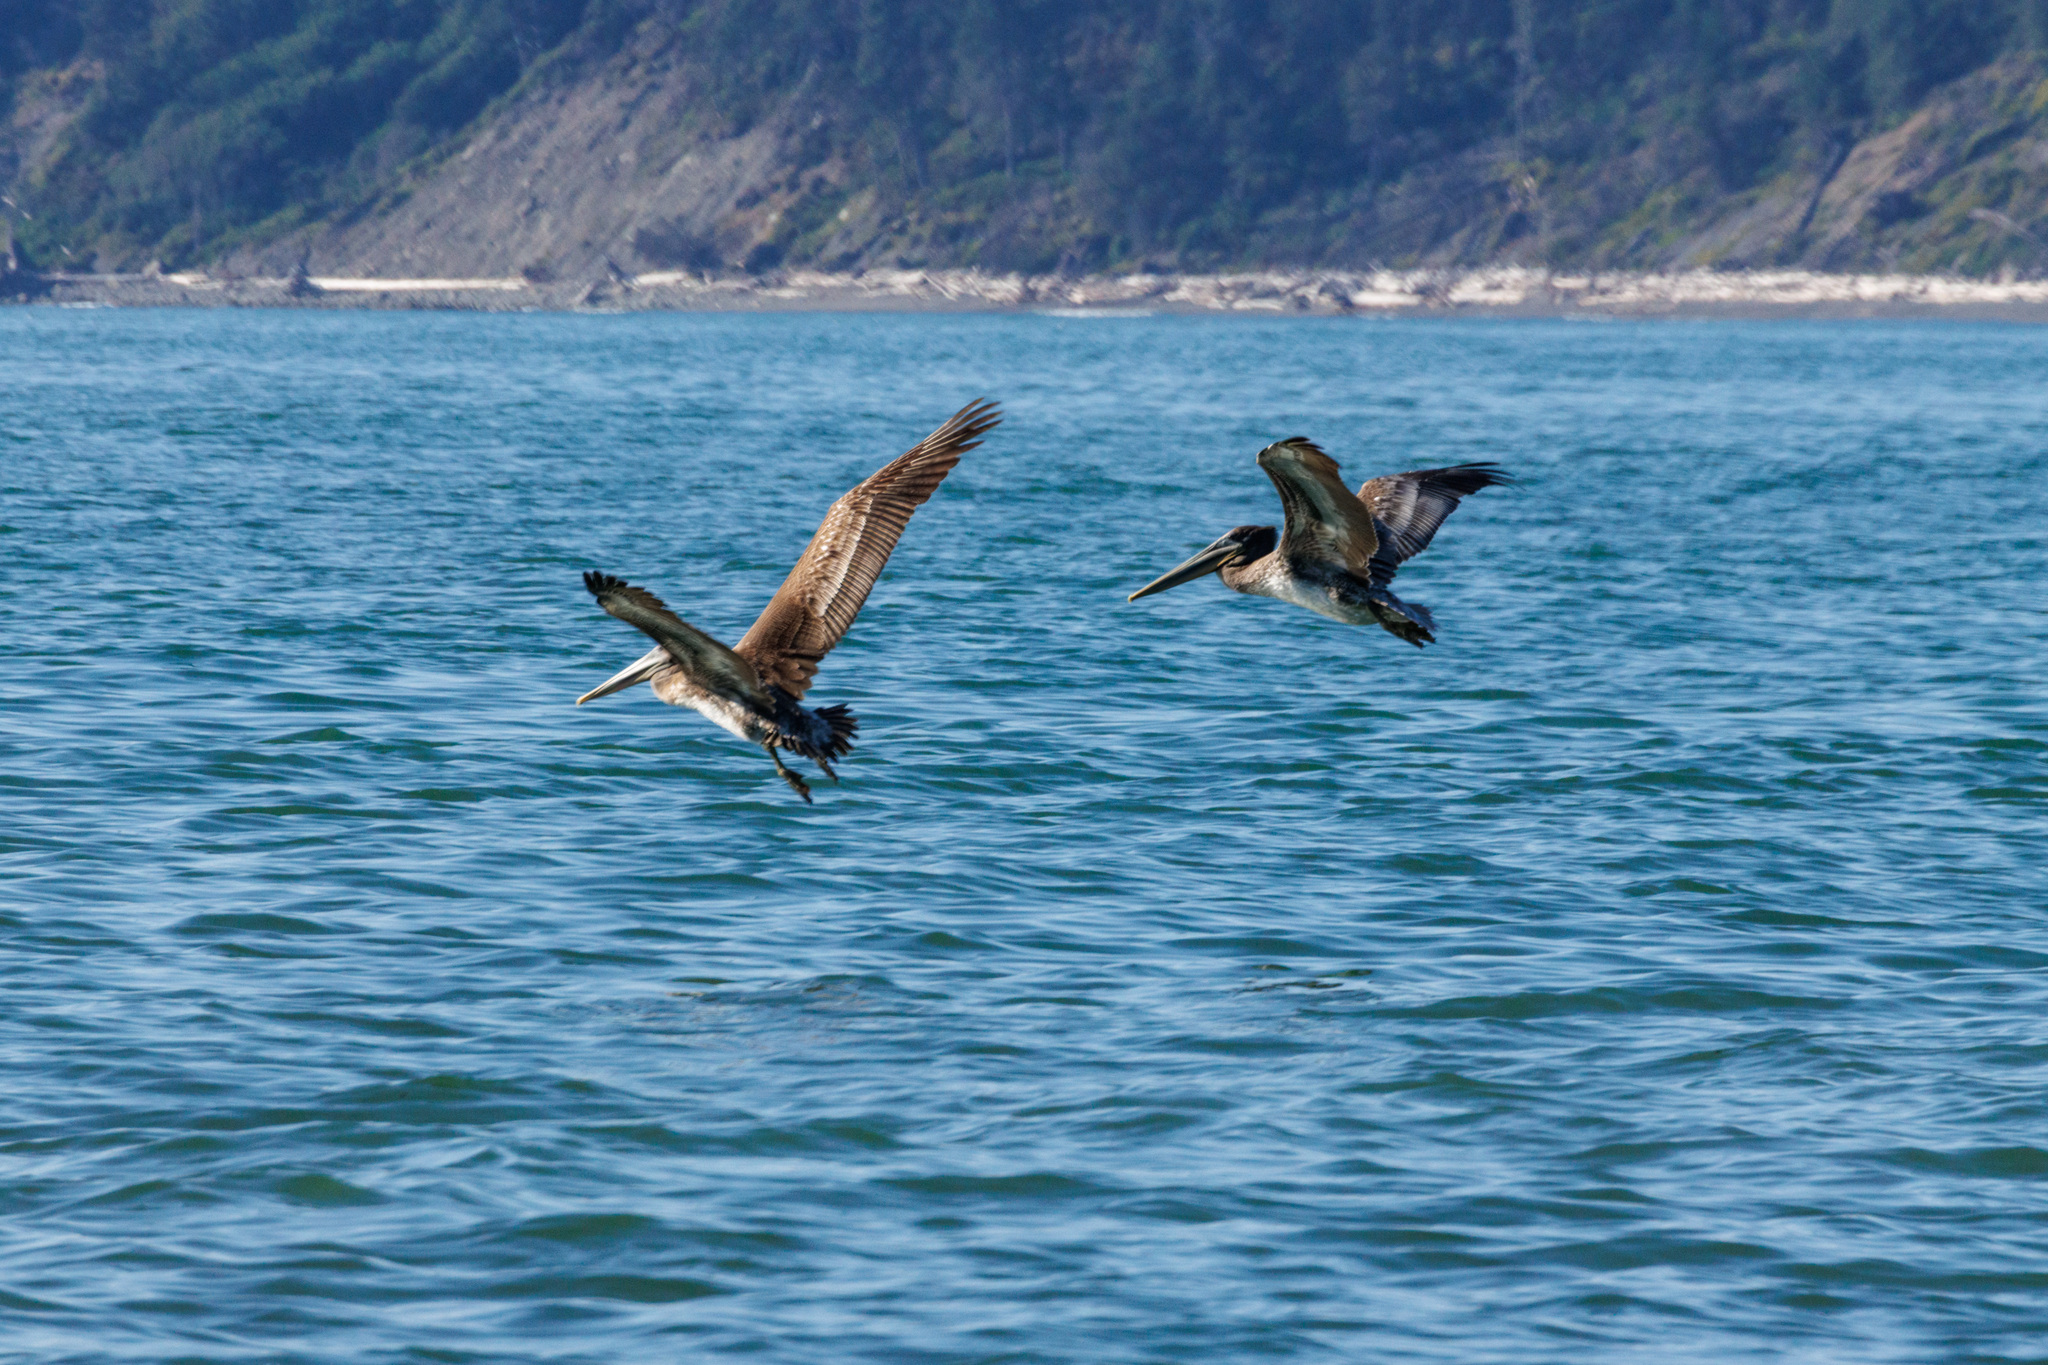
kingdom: Animalia
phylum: Chordata
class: Aves
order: Pelecaniformes
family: Pelecanidae
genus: Pelecanus
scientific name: Pelecanus occidentalis
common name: Brown pelican
